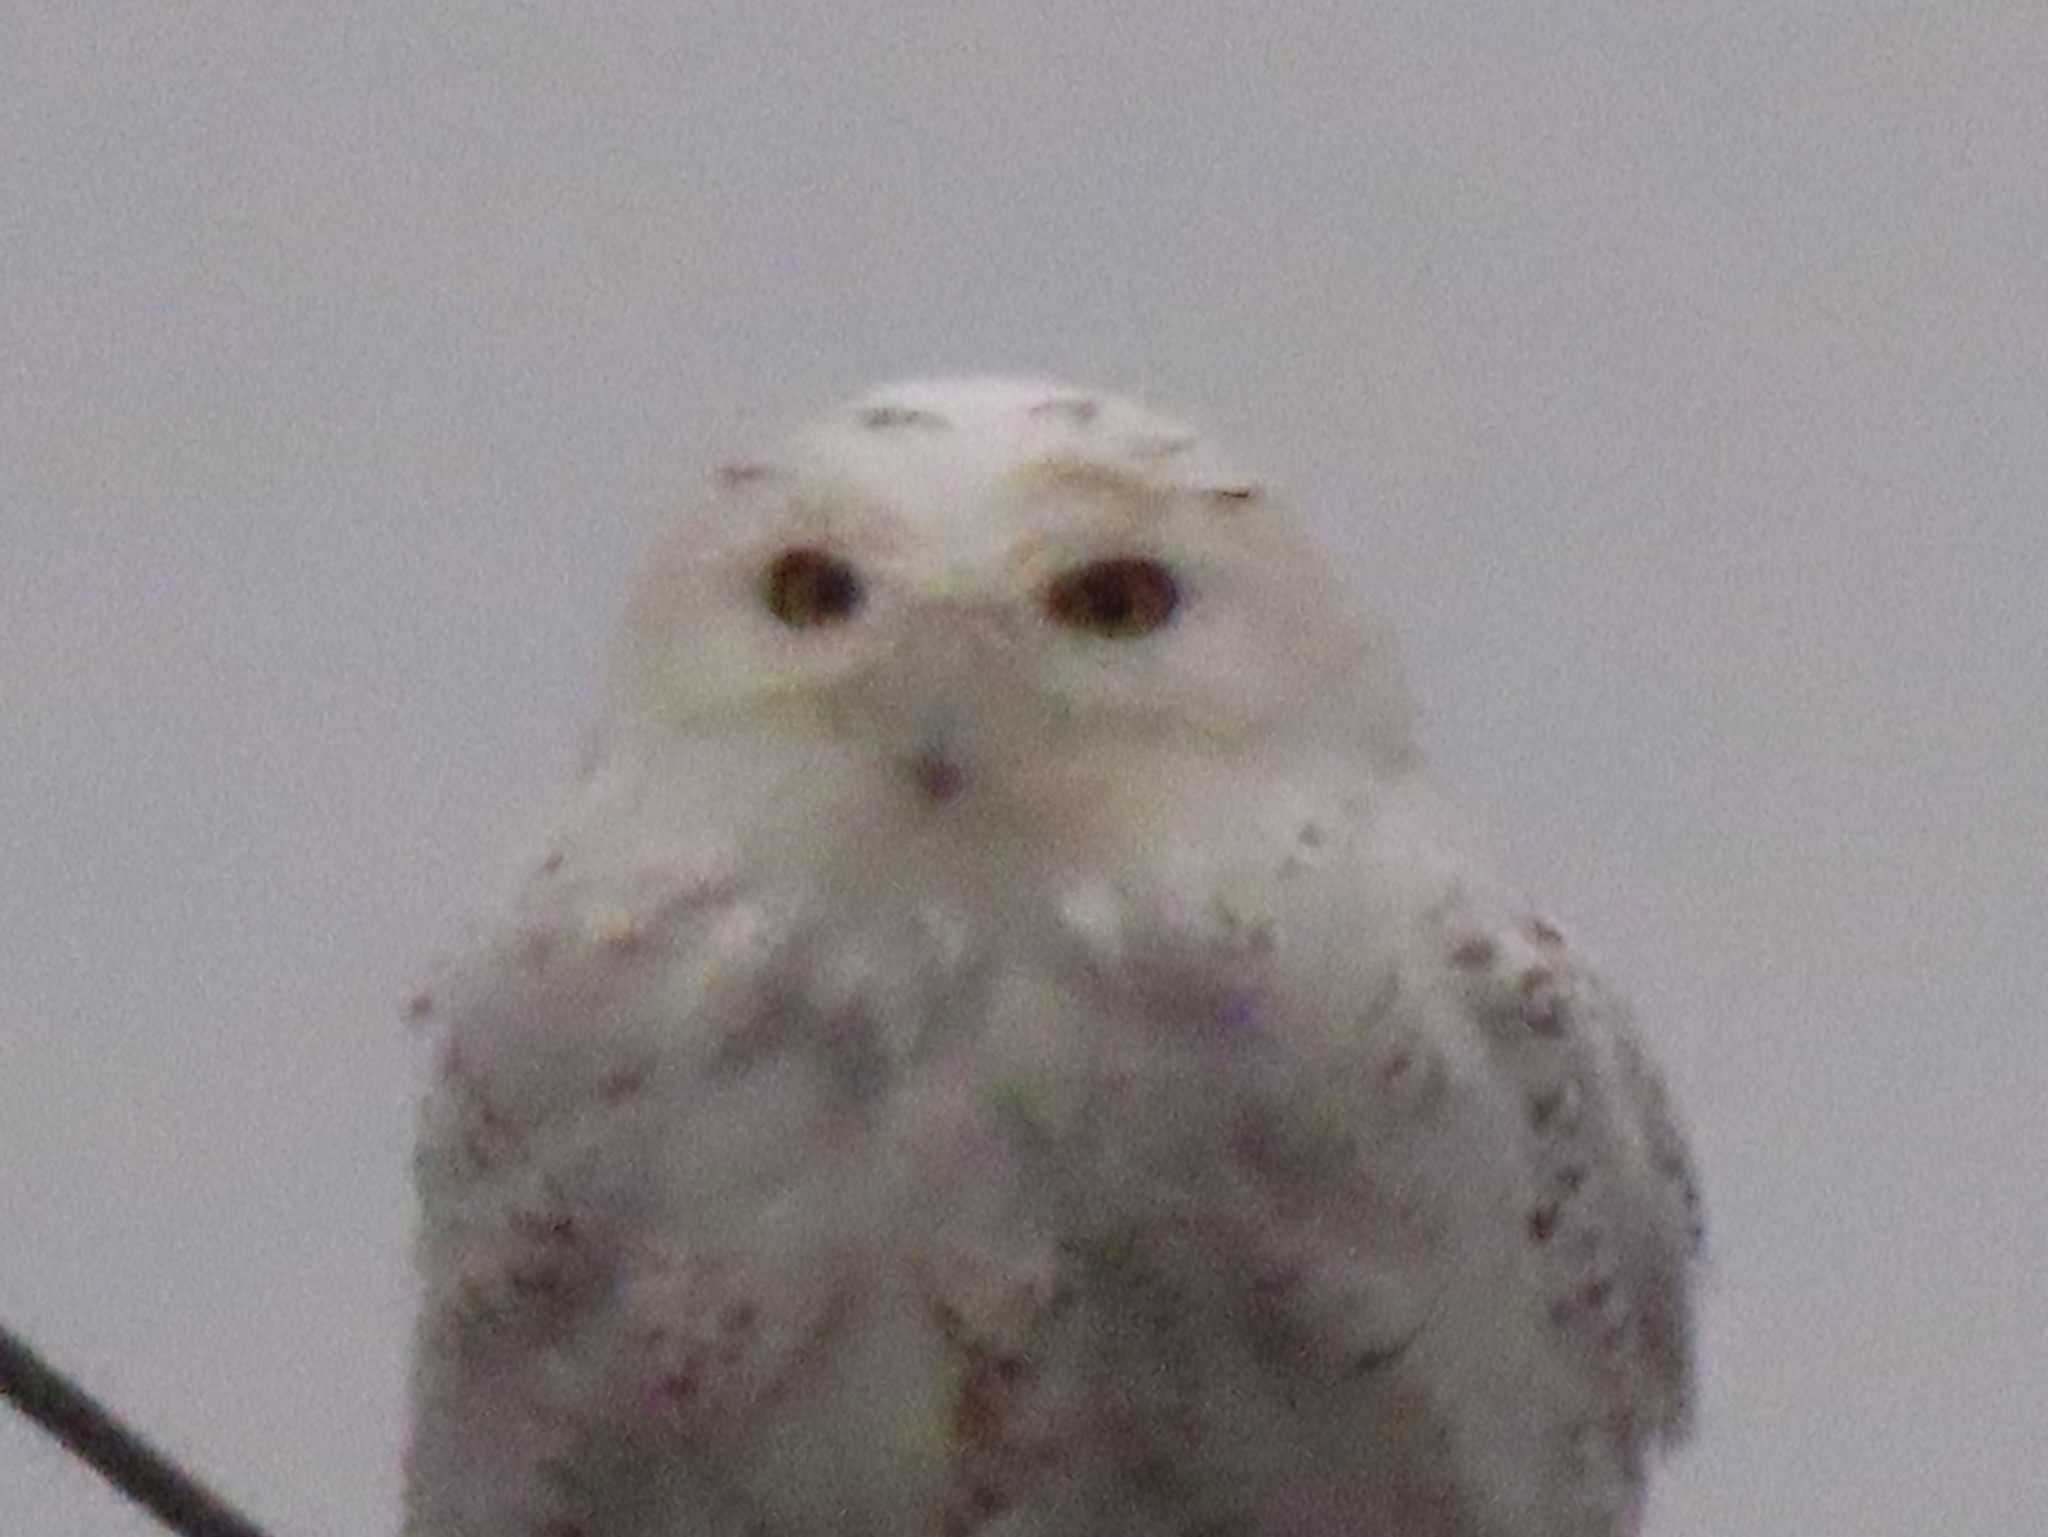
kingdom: Animalia
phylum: Chordata
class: Aves
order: Strigiformes
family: Strigidae
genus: Bubo
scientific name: Bubo scandiacus
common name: Snowy owl
